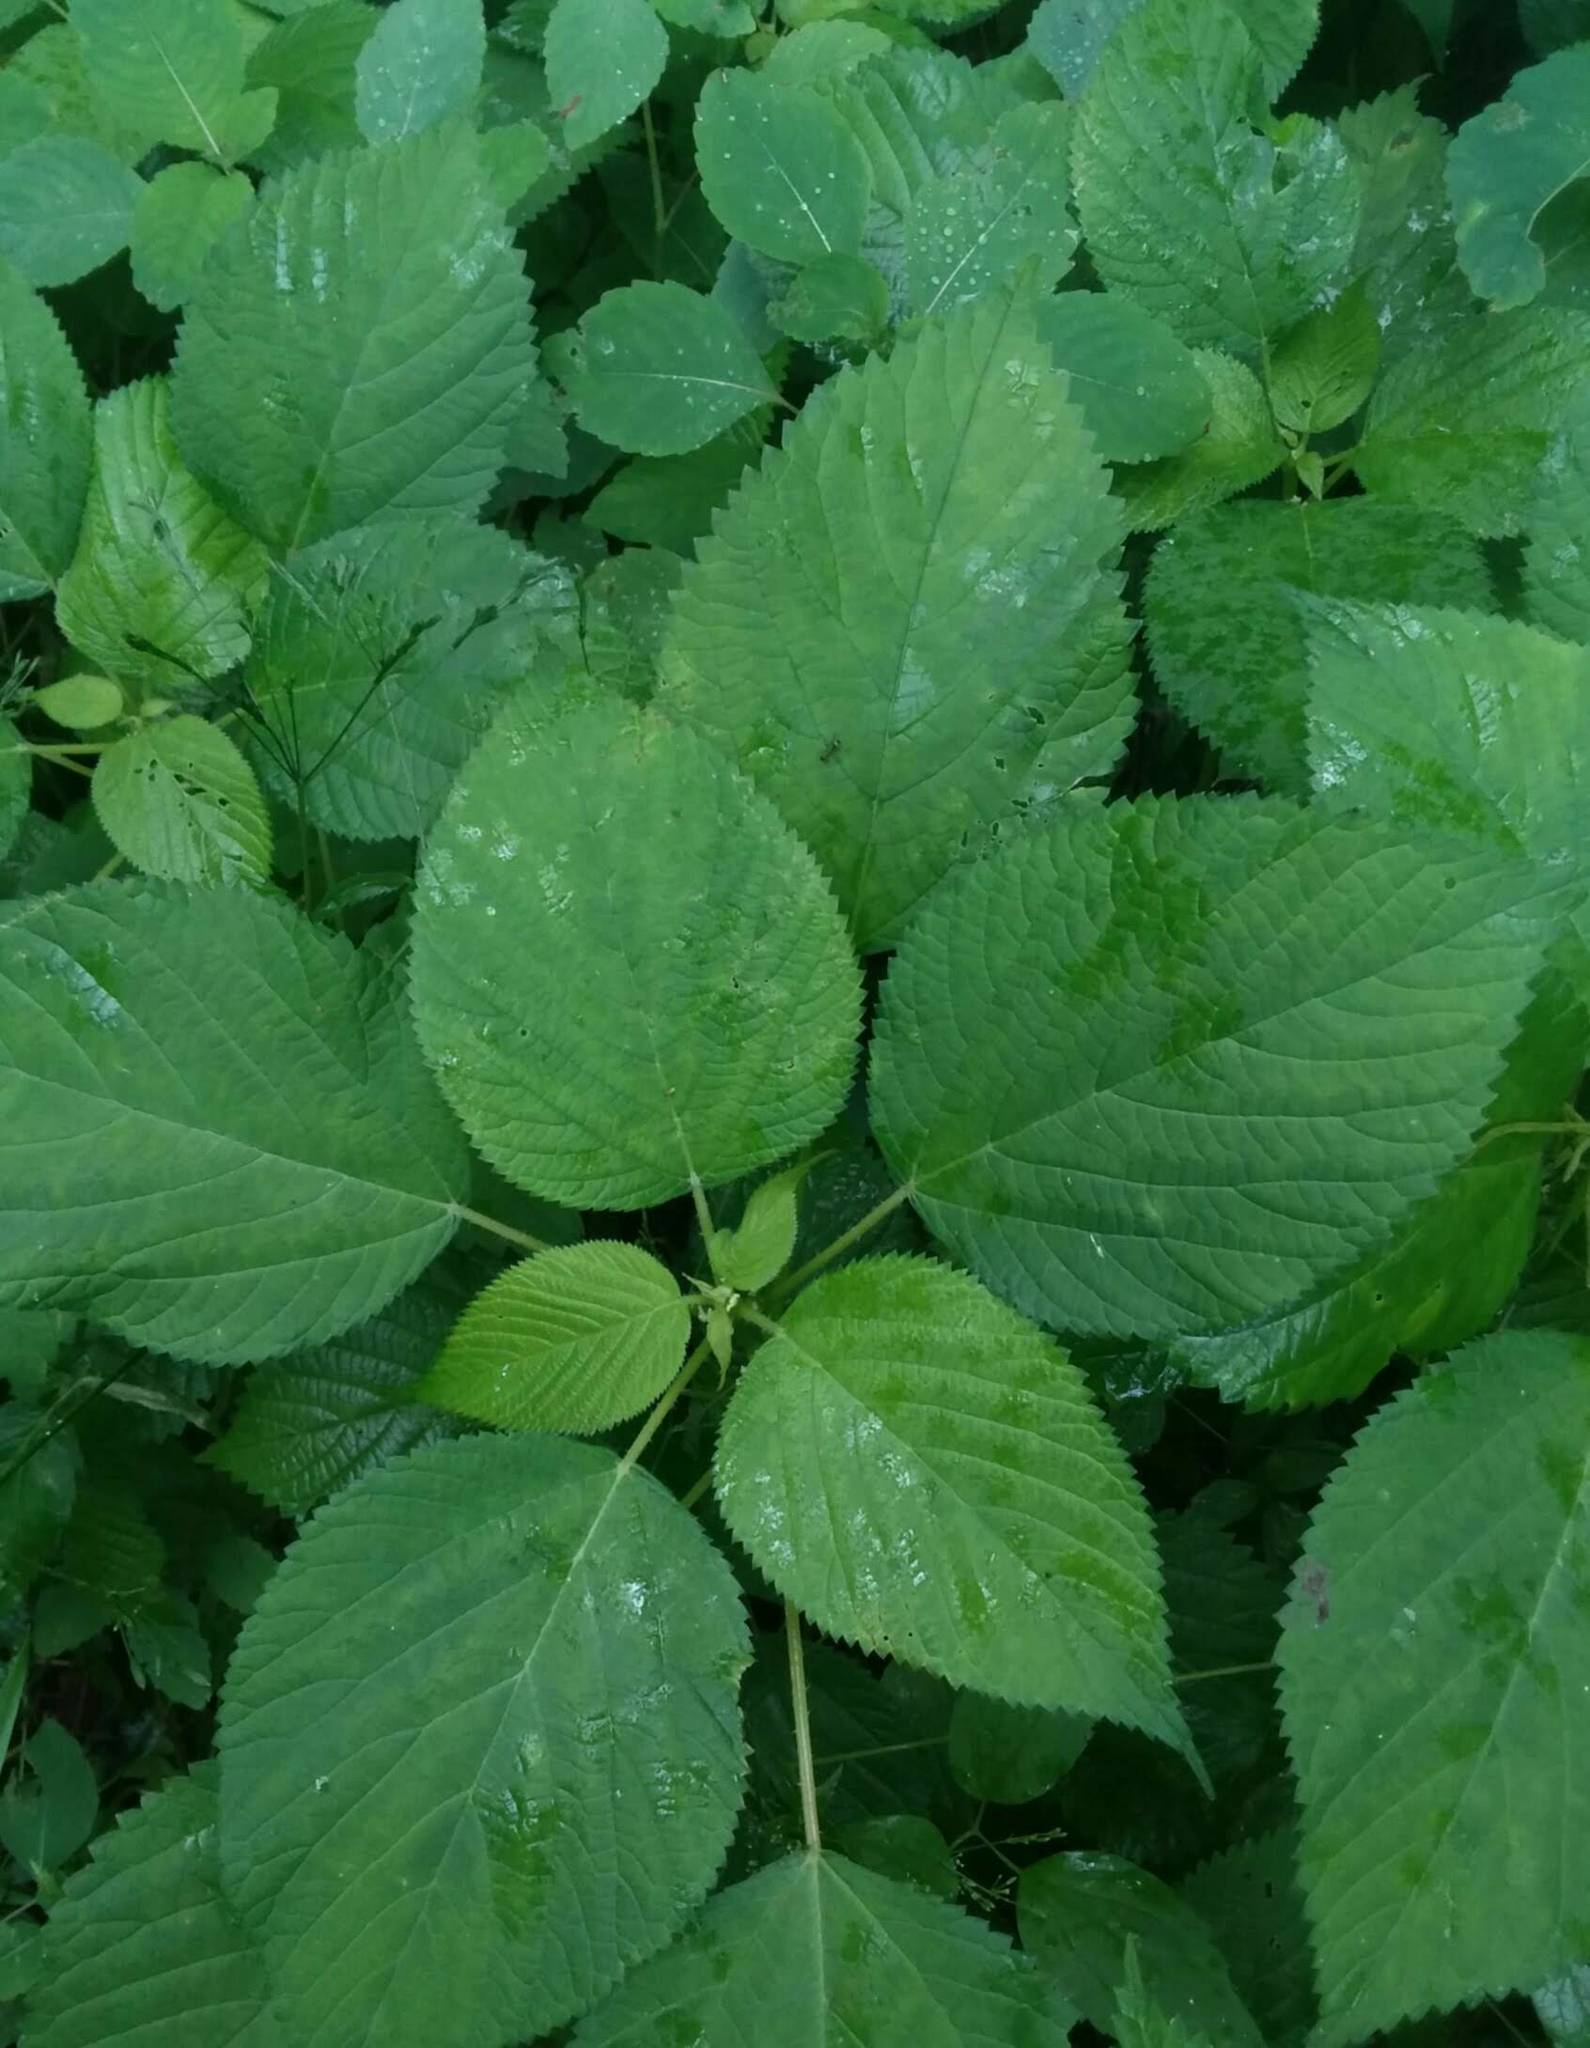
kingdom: Plantae
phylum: Tracheophyta
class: Magnoliopsida
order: Rosales
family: Urticaceae
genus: Laportea
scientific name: Laportea canadensis
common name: Canada nettle
